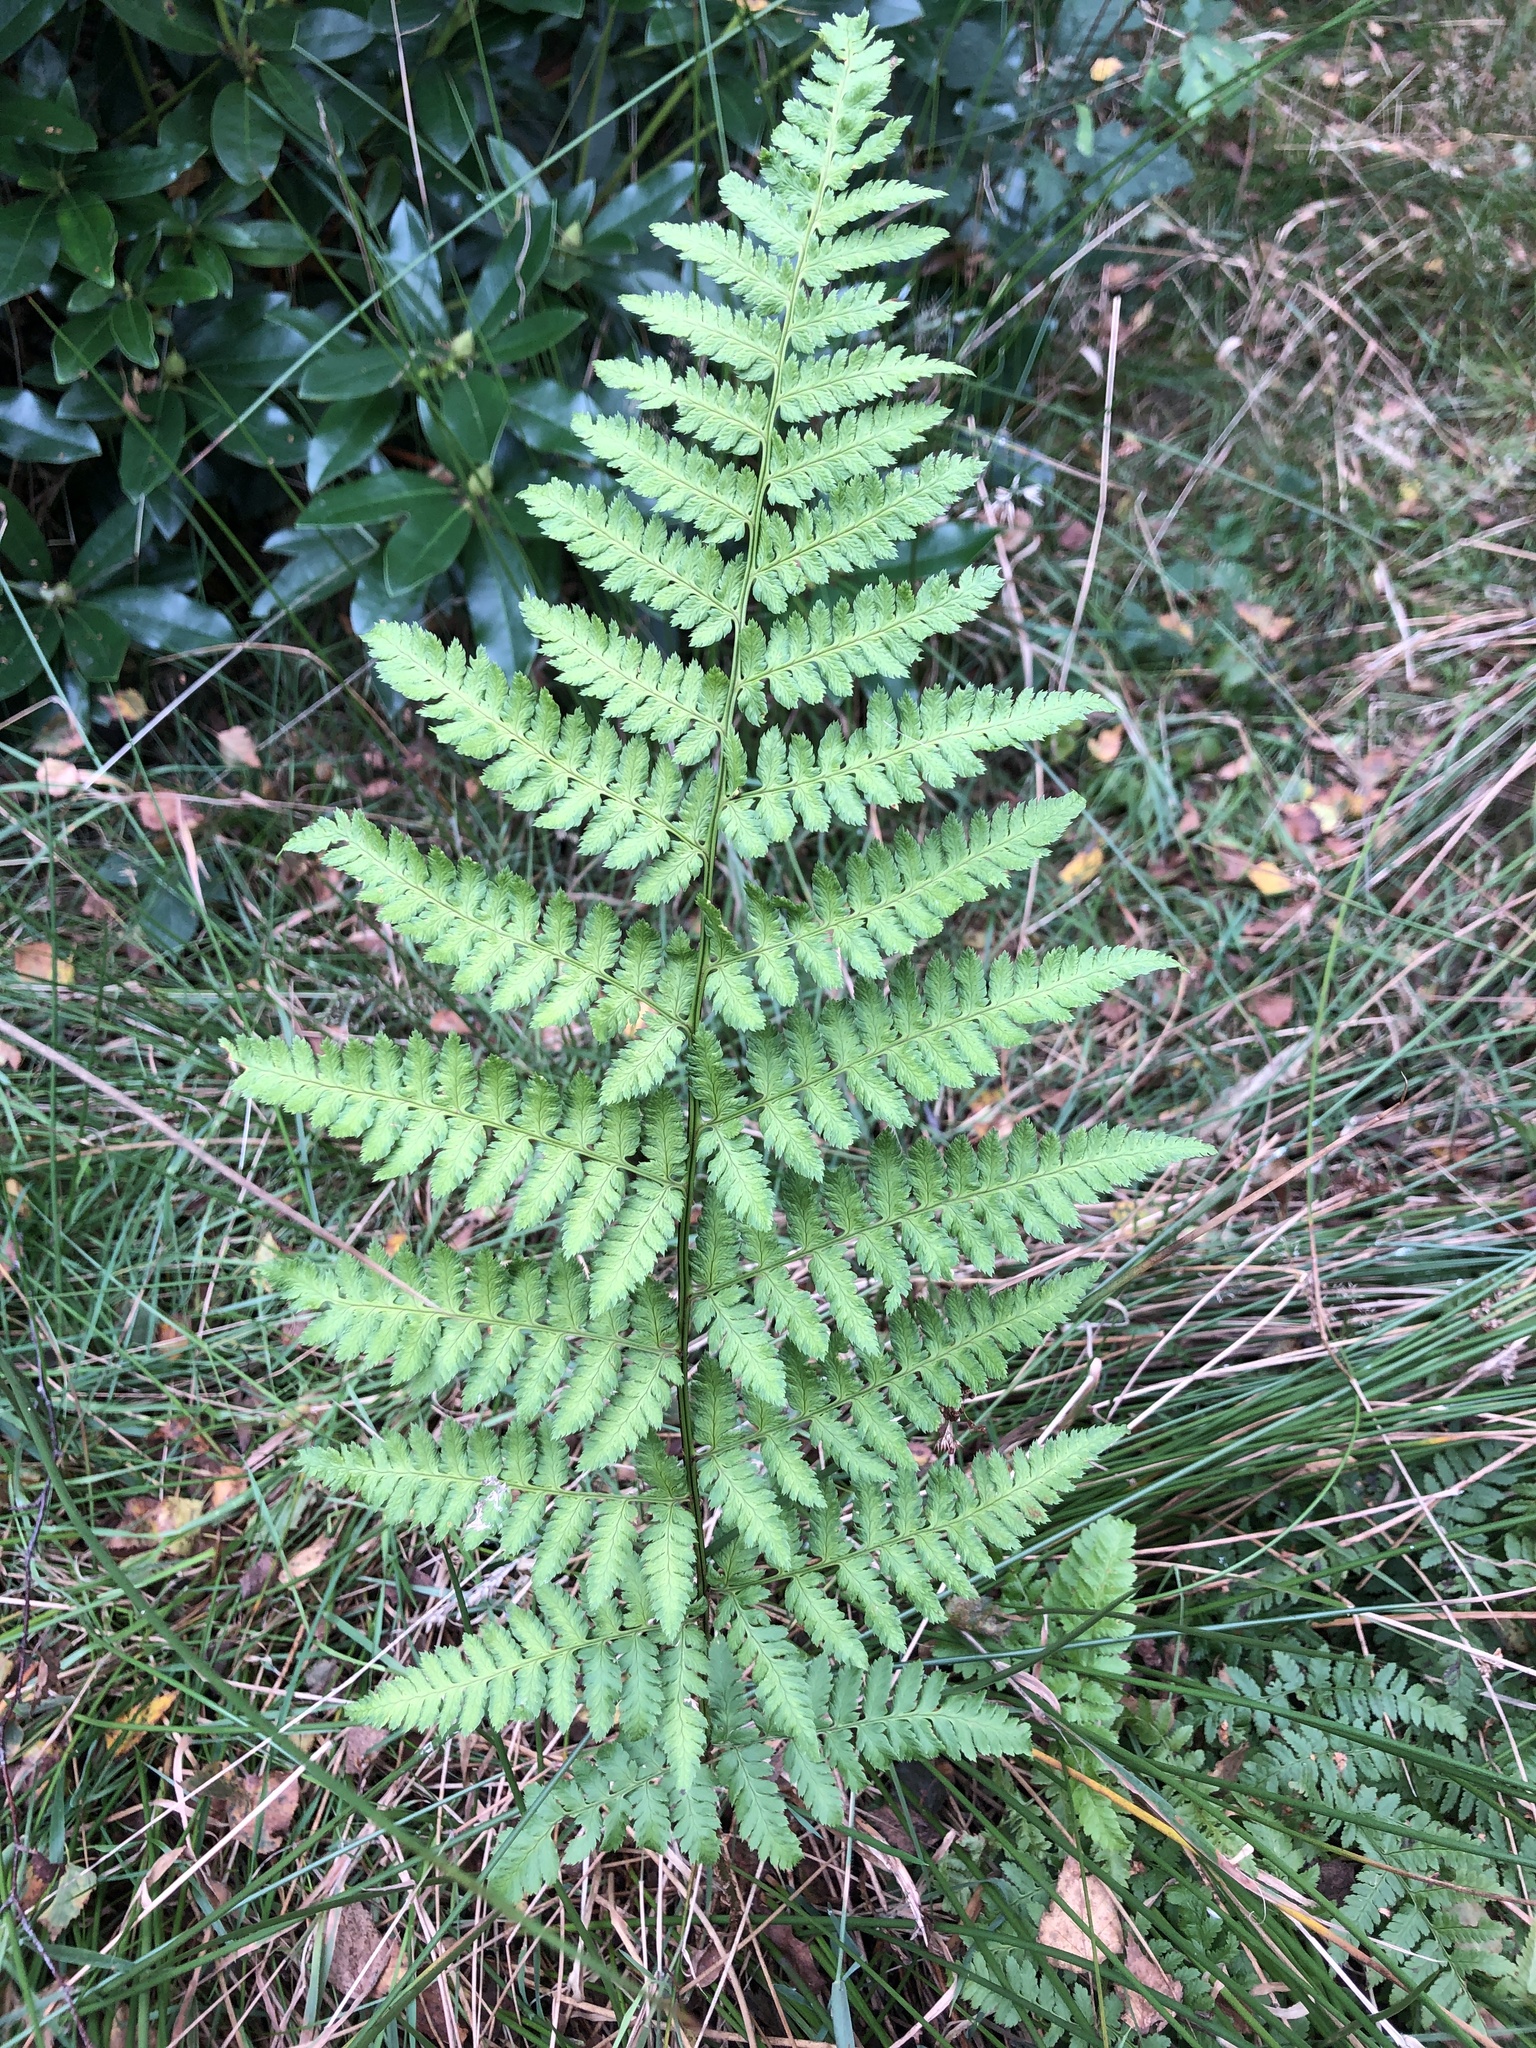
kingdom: Plantae
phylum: Tracheophyta
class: Polypodiopsida
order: Polypodiales
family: Dryopteridaceae
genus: Dryopteris
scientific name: Dryopteris carthusiana
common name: Narrow buckler-fern
